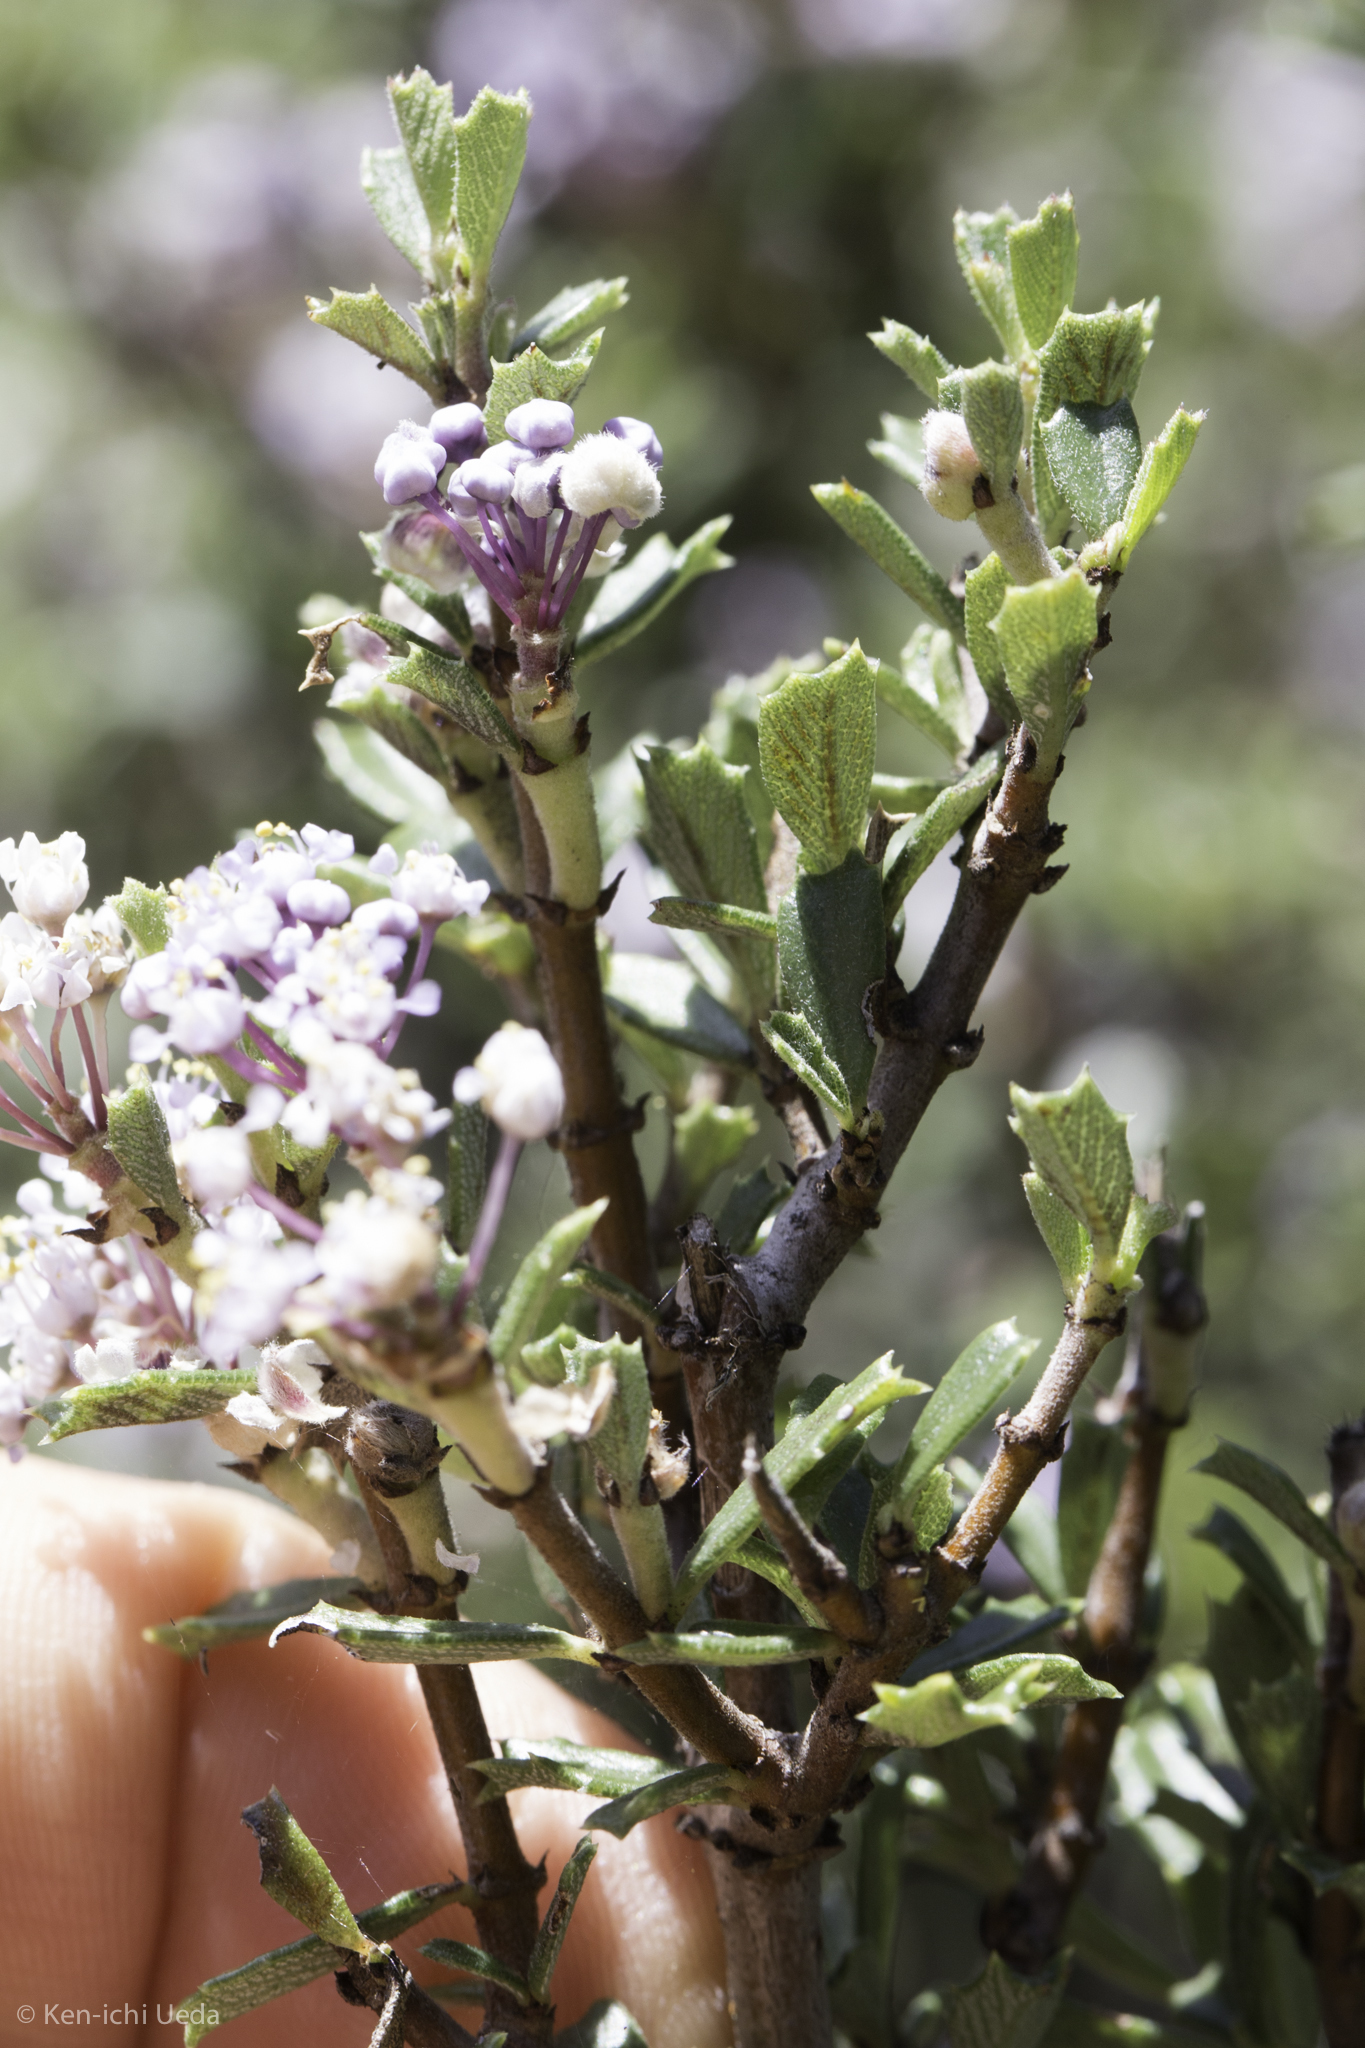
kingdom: Plantae
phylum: Tracheophyta
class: Magnoliopsida
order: Rosales
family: Rhamnaceae
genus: Ceanothus
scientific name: Ceanothus sonomensis
